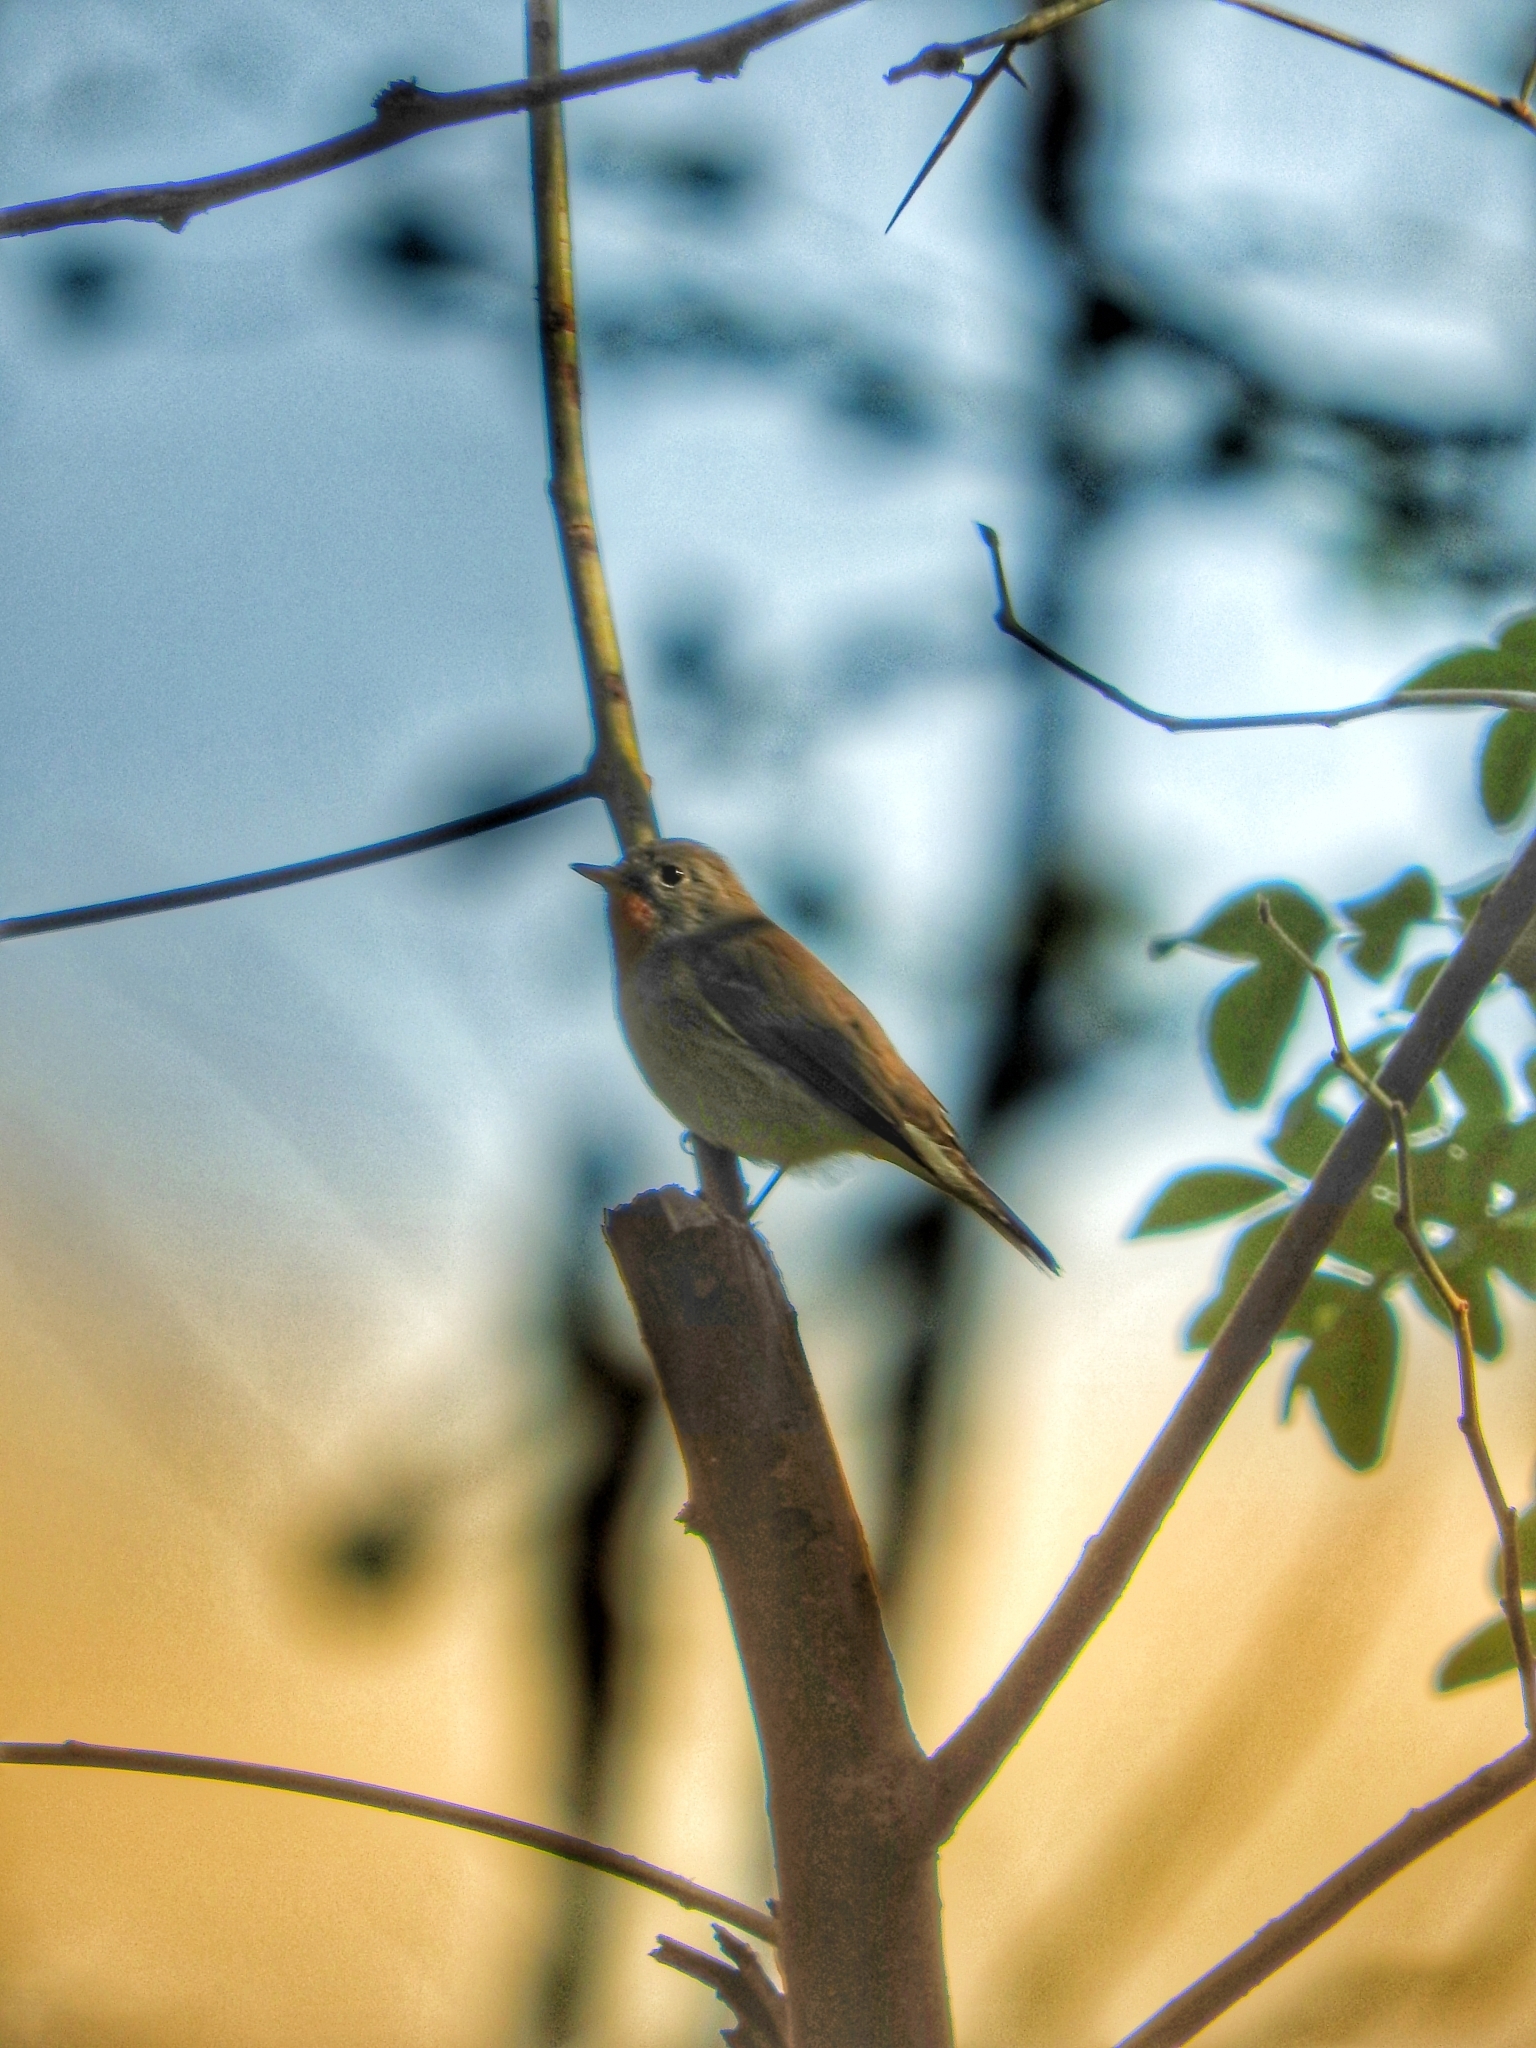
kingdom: Animalia
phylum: Chordata
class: Aves
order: Passeriformes
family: Muscicapidae
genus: Ficedula
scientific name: Ficedula parva
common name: Red-breasted flycatcher
